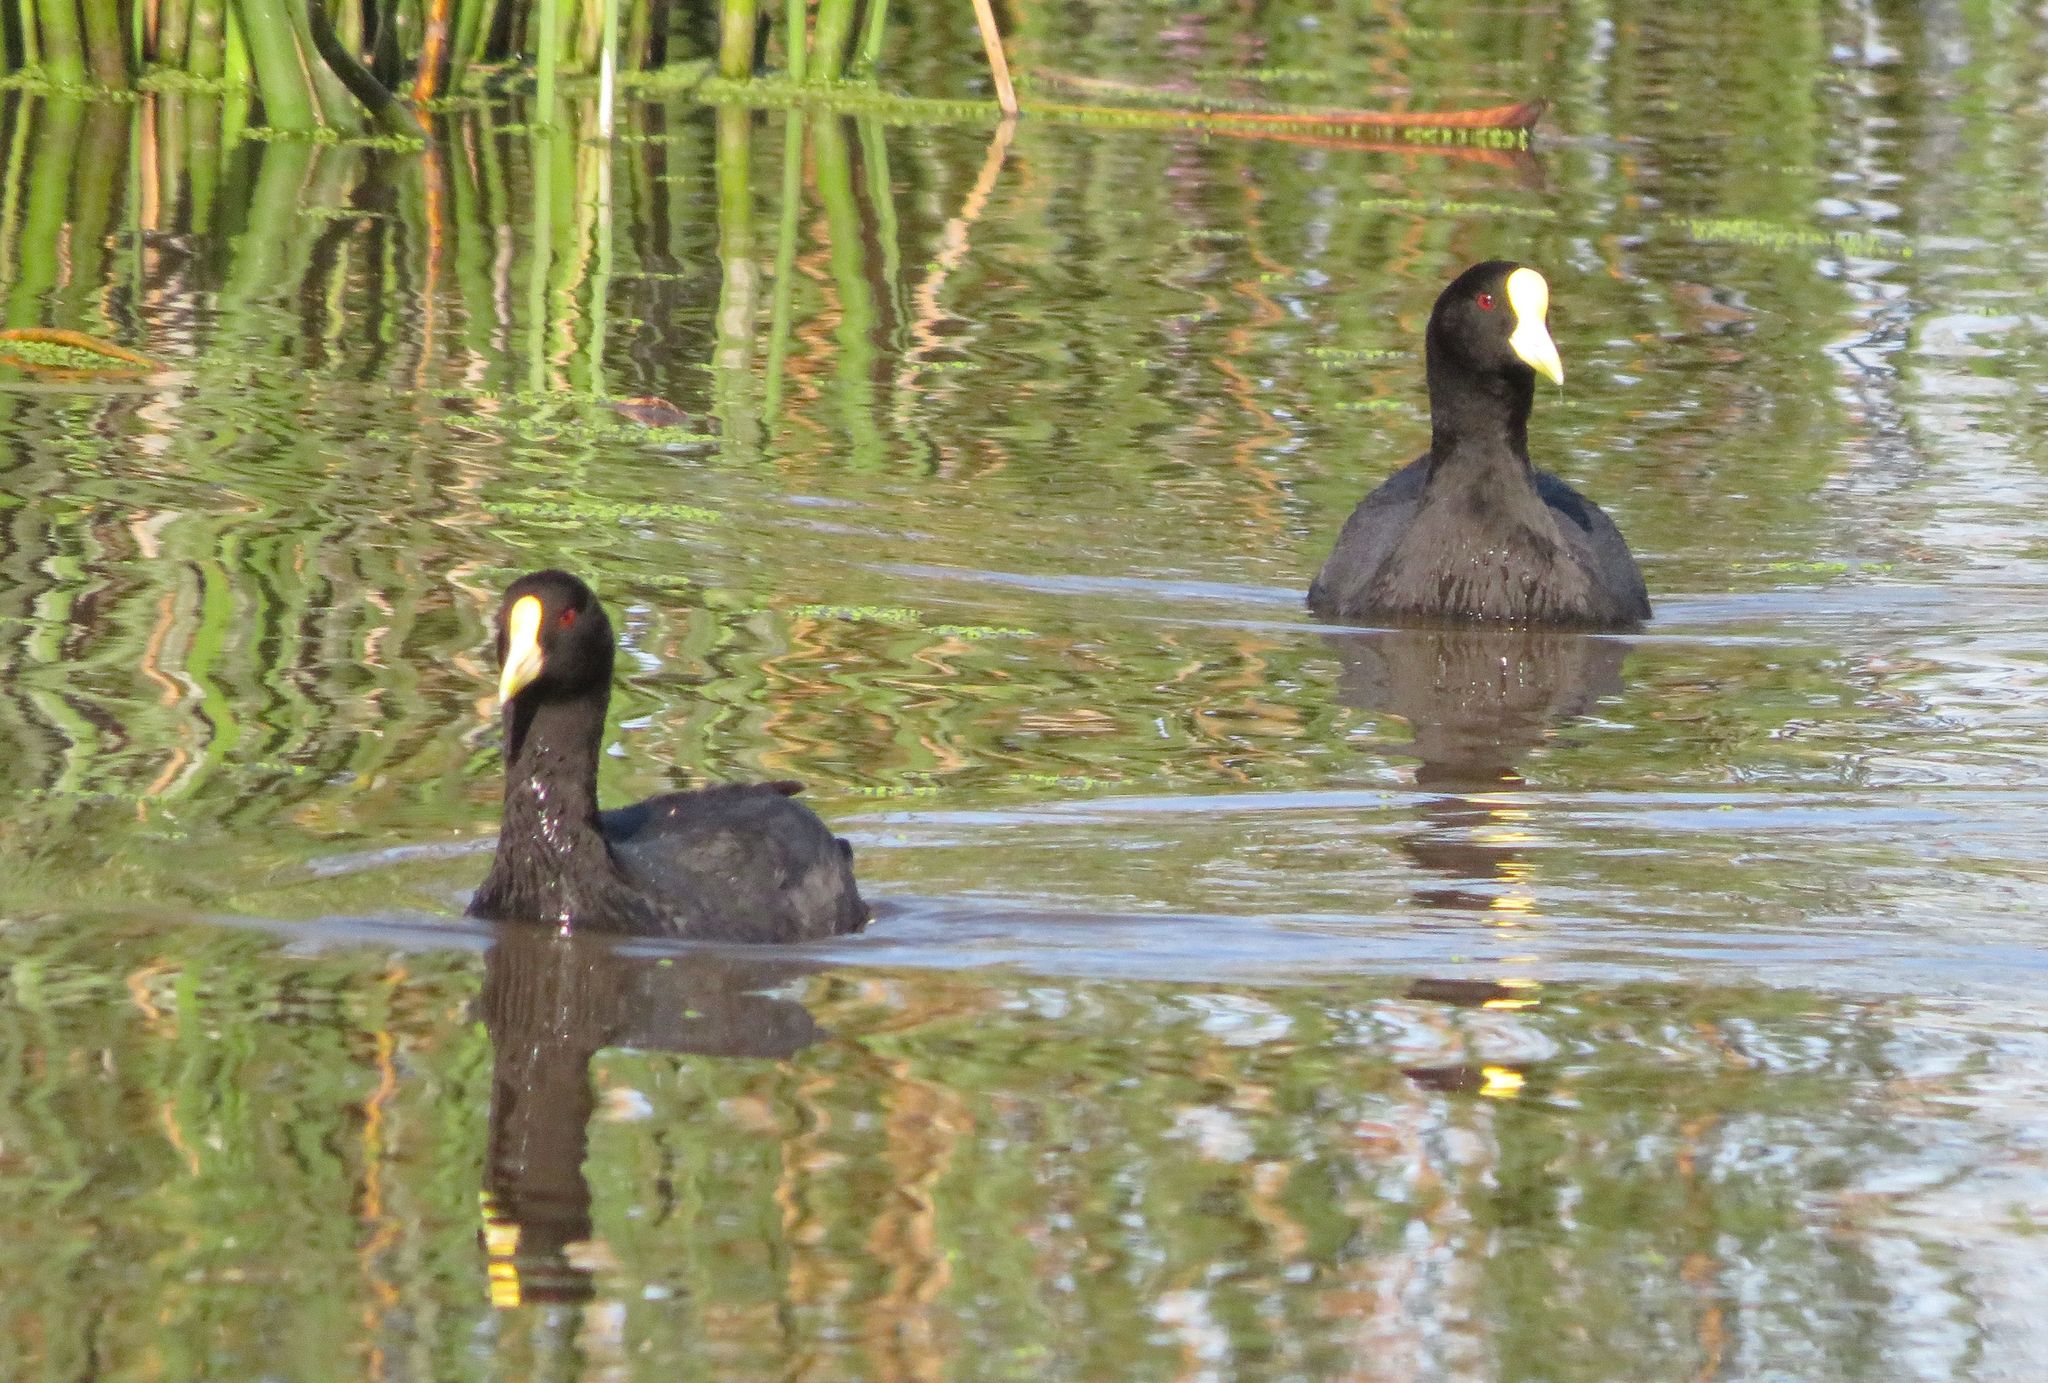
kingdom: Animalia
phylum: Chordata
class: Aves
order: Gruiformes
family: Rallidae
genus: Fulica
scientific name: Fulica leucoptera
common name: White-winged coot
